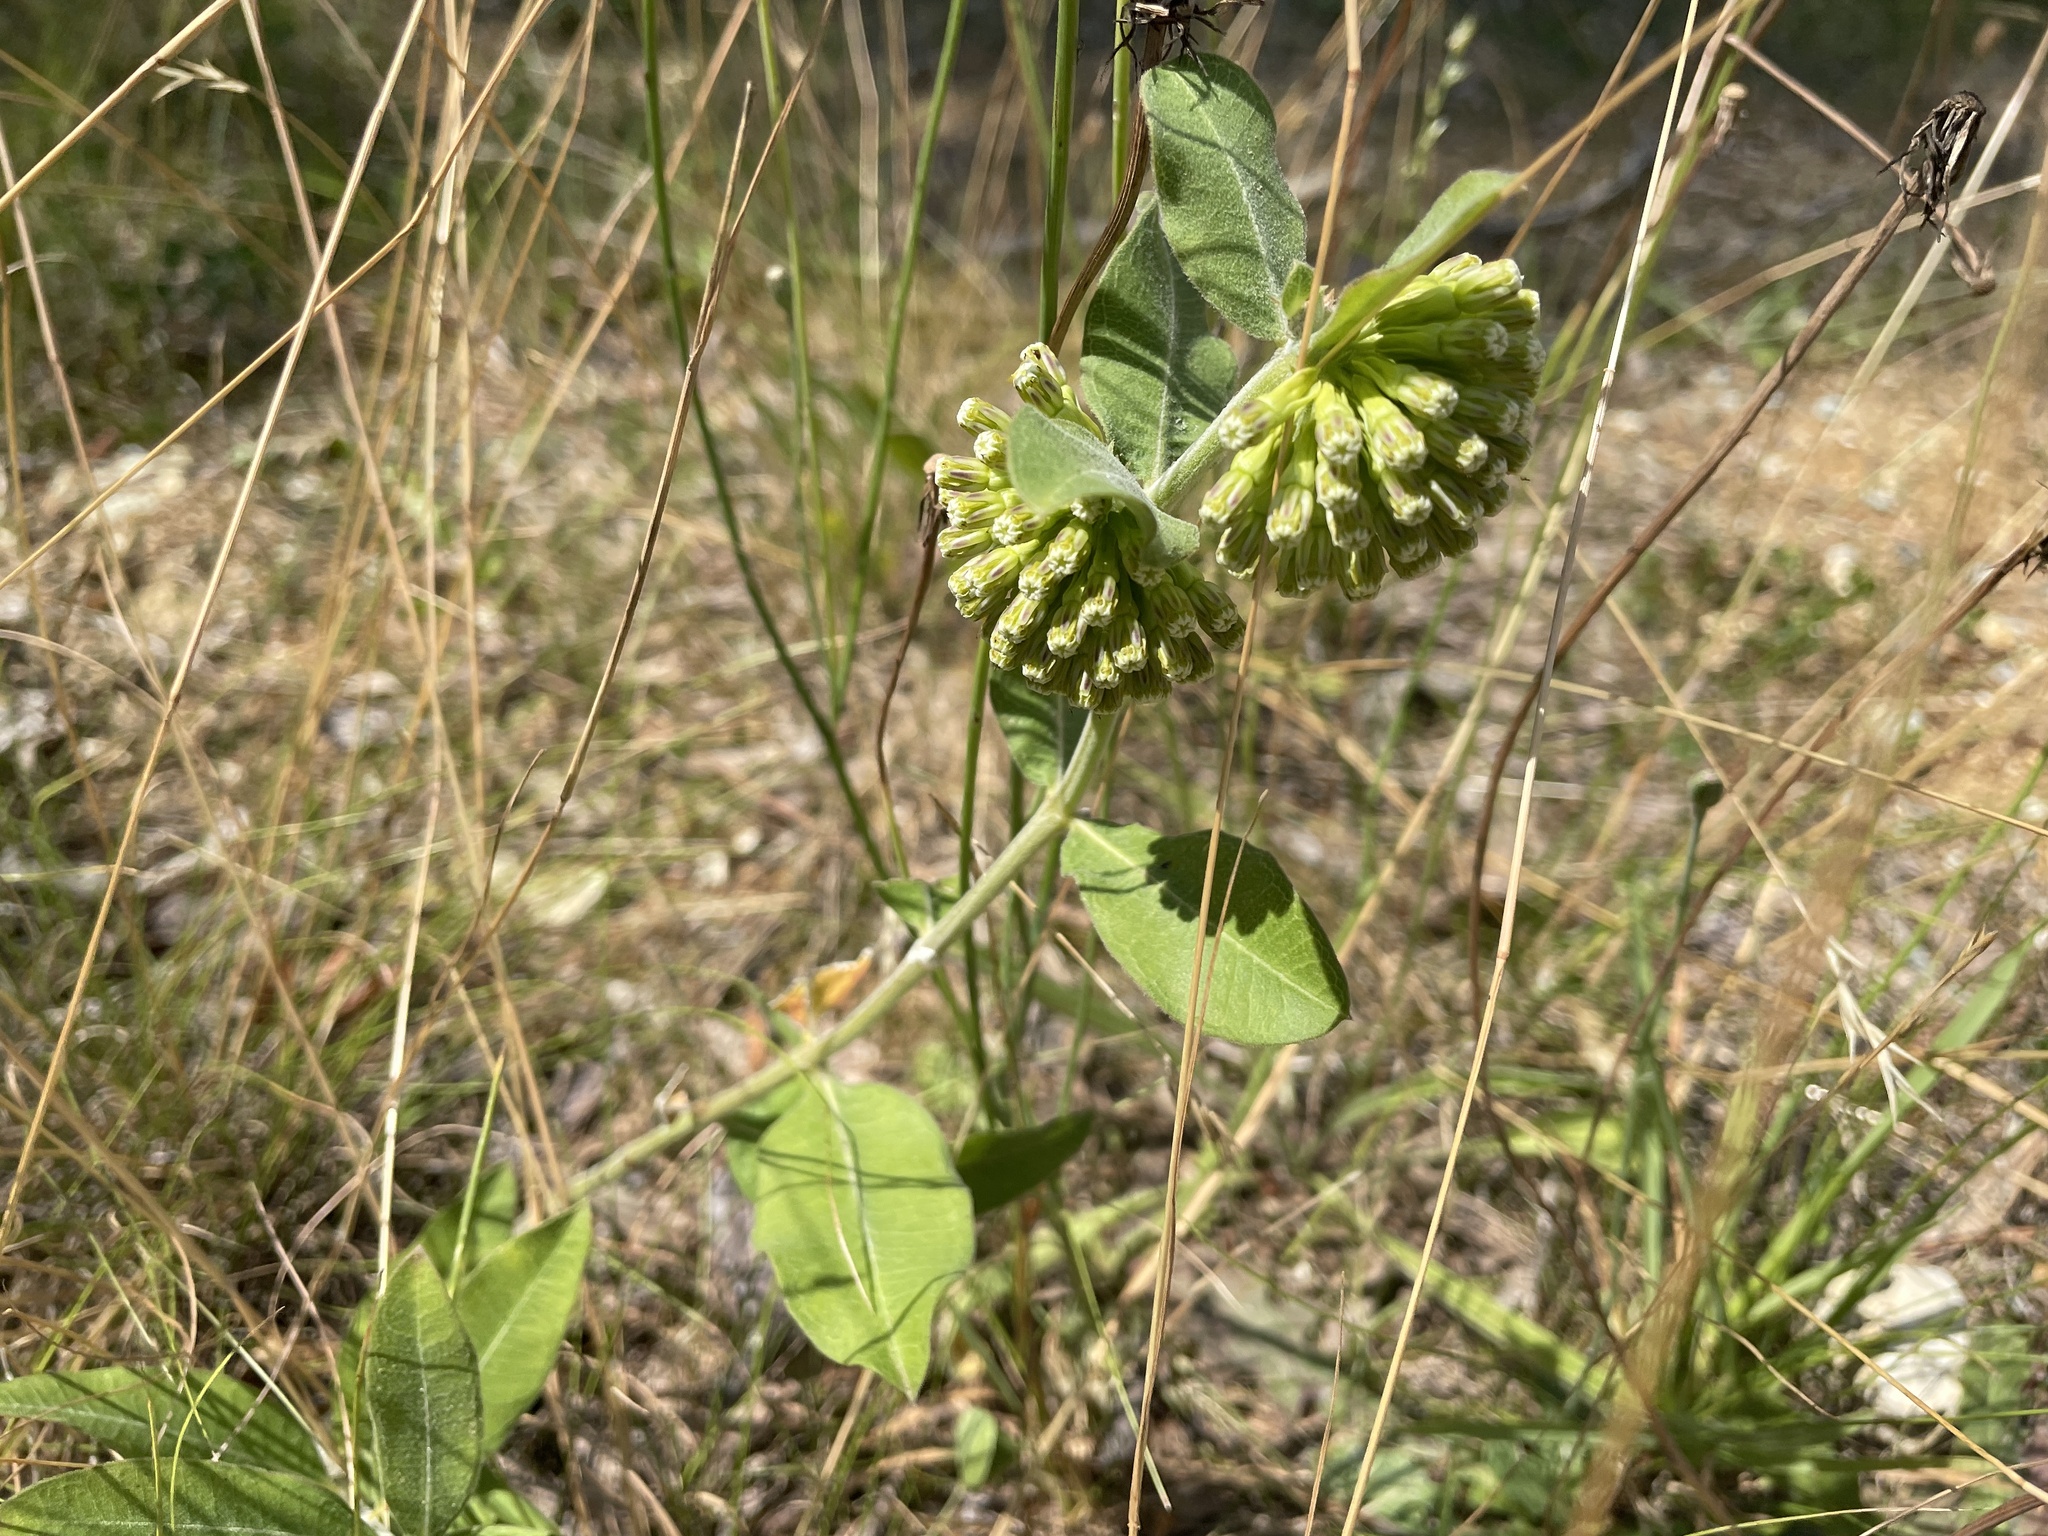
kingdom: Plantae
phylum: Tracheophyta
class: Magnoliopsida
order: Gentianales
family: Apocynaceae
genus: Asclepias
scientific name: Asclepias viridiflora
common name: Green comet milkweed
